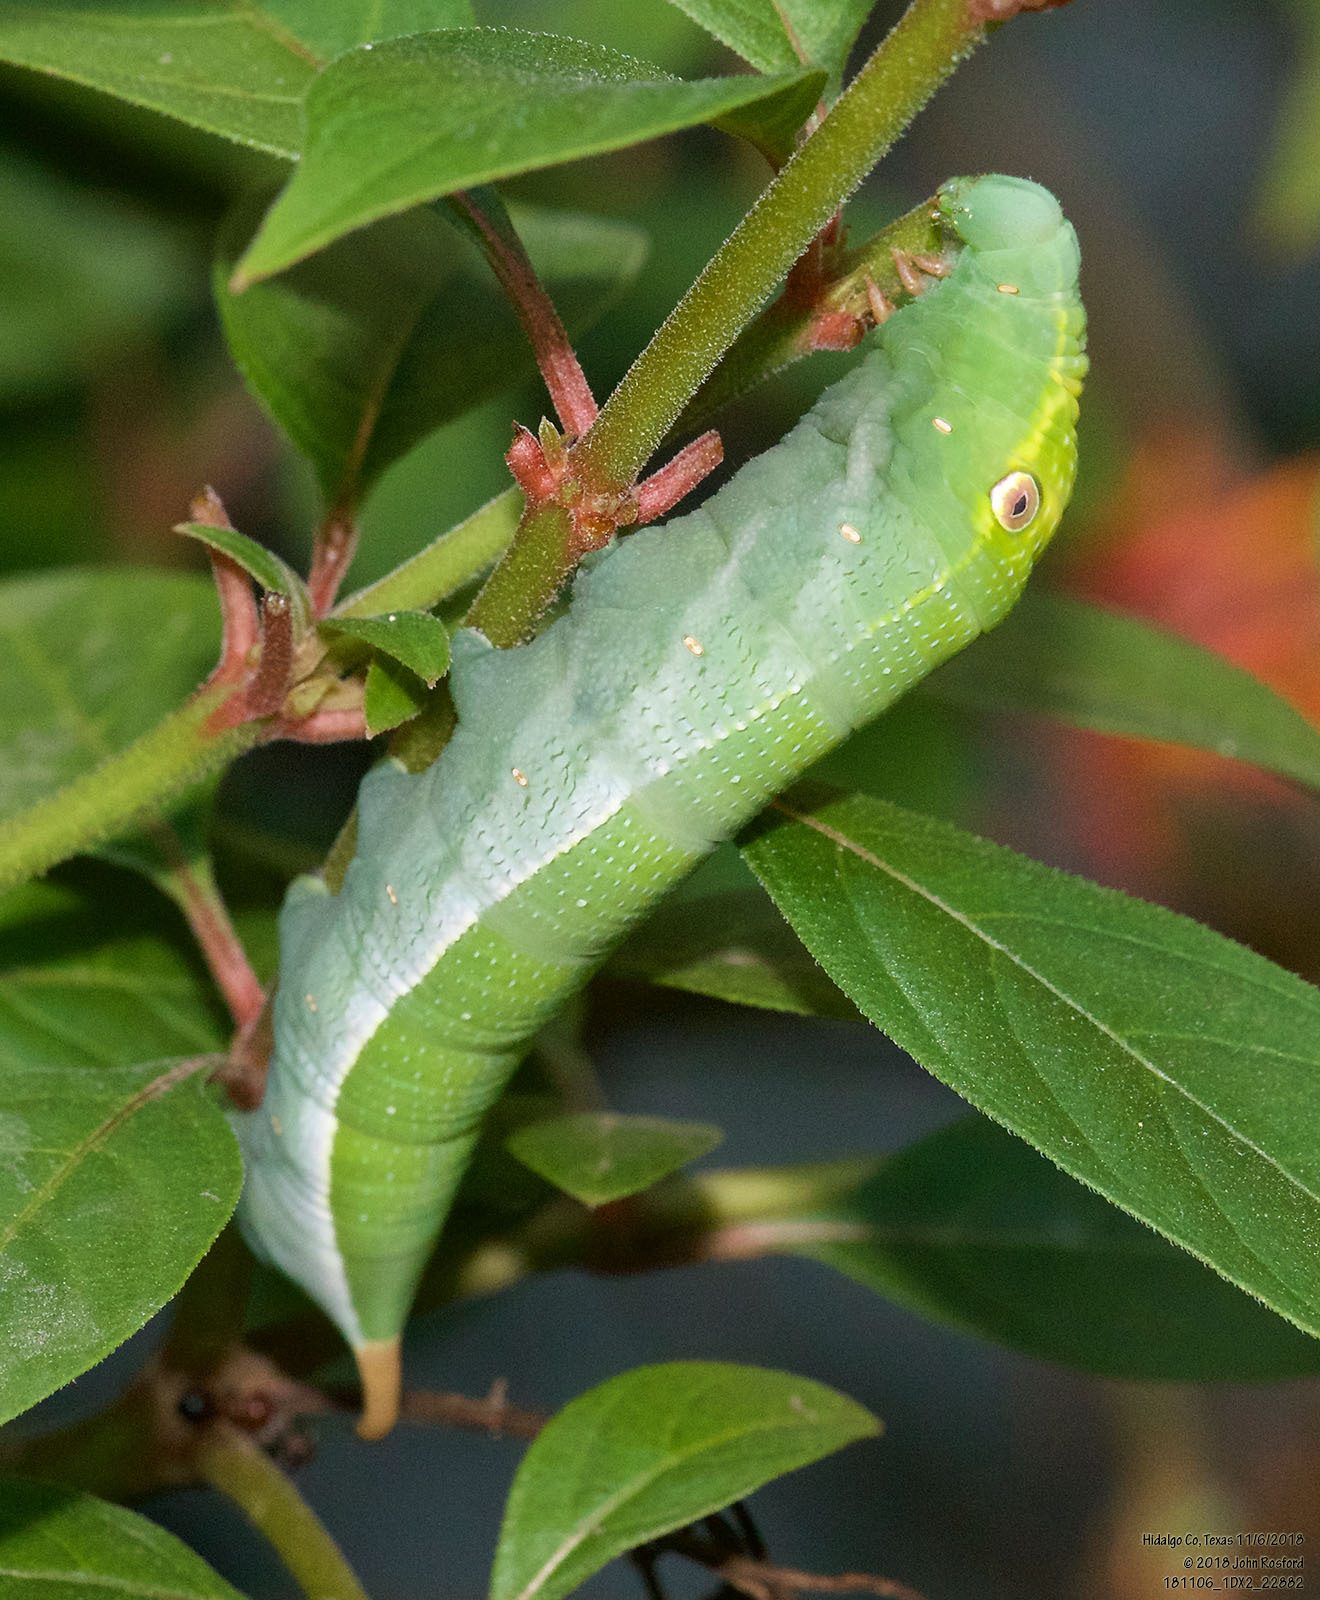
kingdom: Animalia
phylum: Arthropoda
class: Insecta
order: Lepidoptera
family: Sphingidae
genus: Xylophanes
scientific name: Xylophanes pluto
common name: Pluto sphinx
